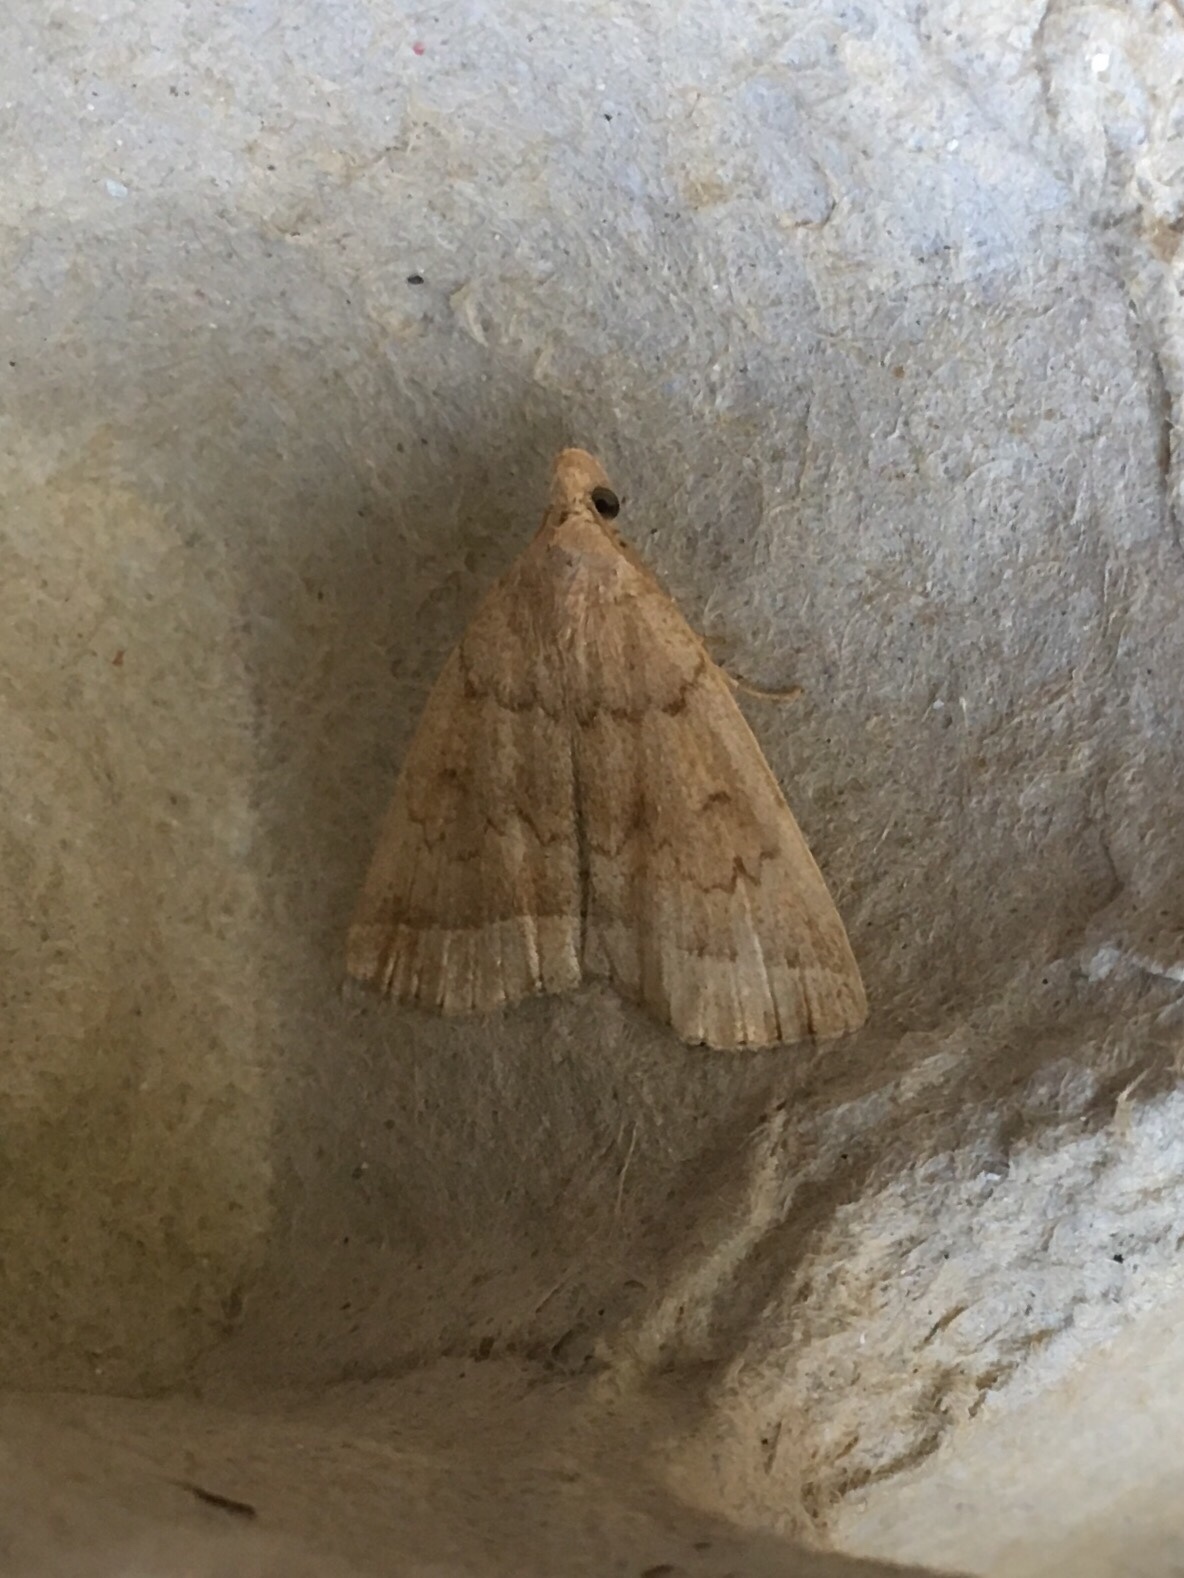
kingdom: Animalia
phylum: Arthropoda
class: Insecta
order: Lepidoptera
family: Erebidae
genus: Zanclognatha
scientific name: Zanclognatha jacchusalis
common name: Yellowish zanclognatha
